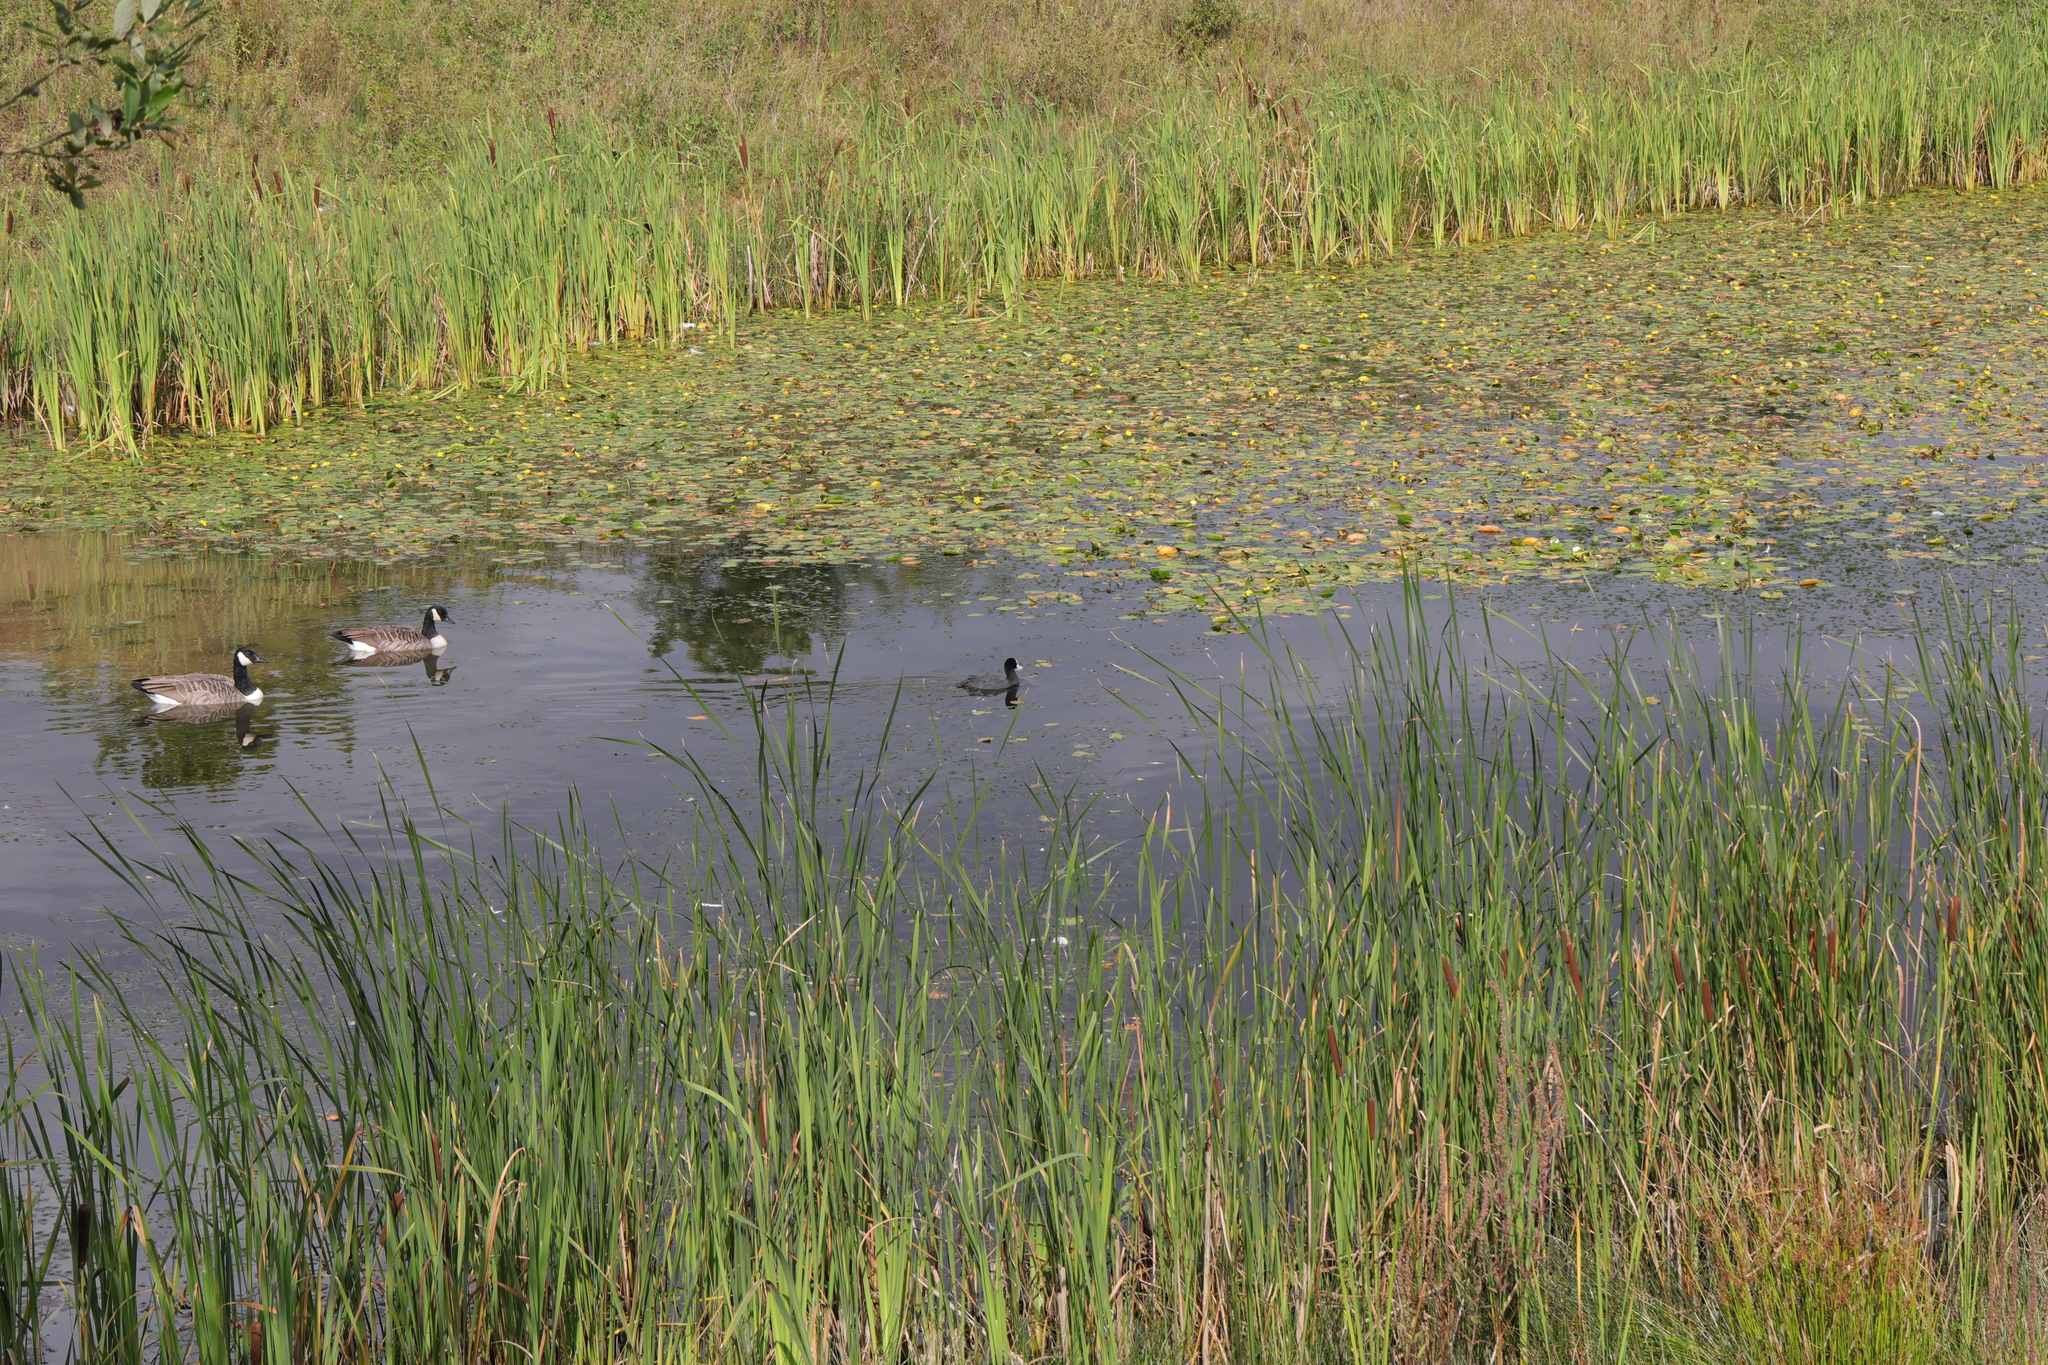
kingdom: Animalia
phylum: Chordata
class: Aves
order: Gruiformes
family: Rallidae
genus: Fulica
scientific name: Fulica atra
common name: Eurasian coot
